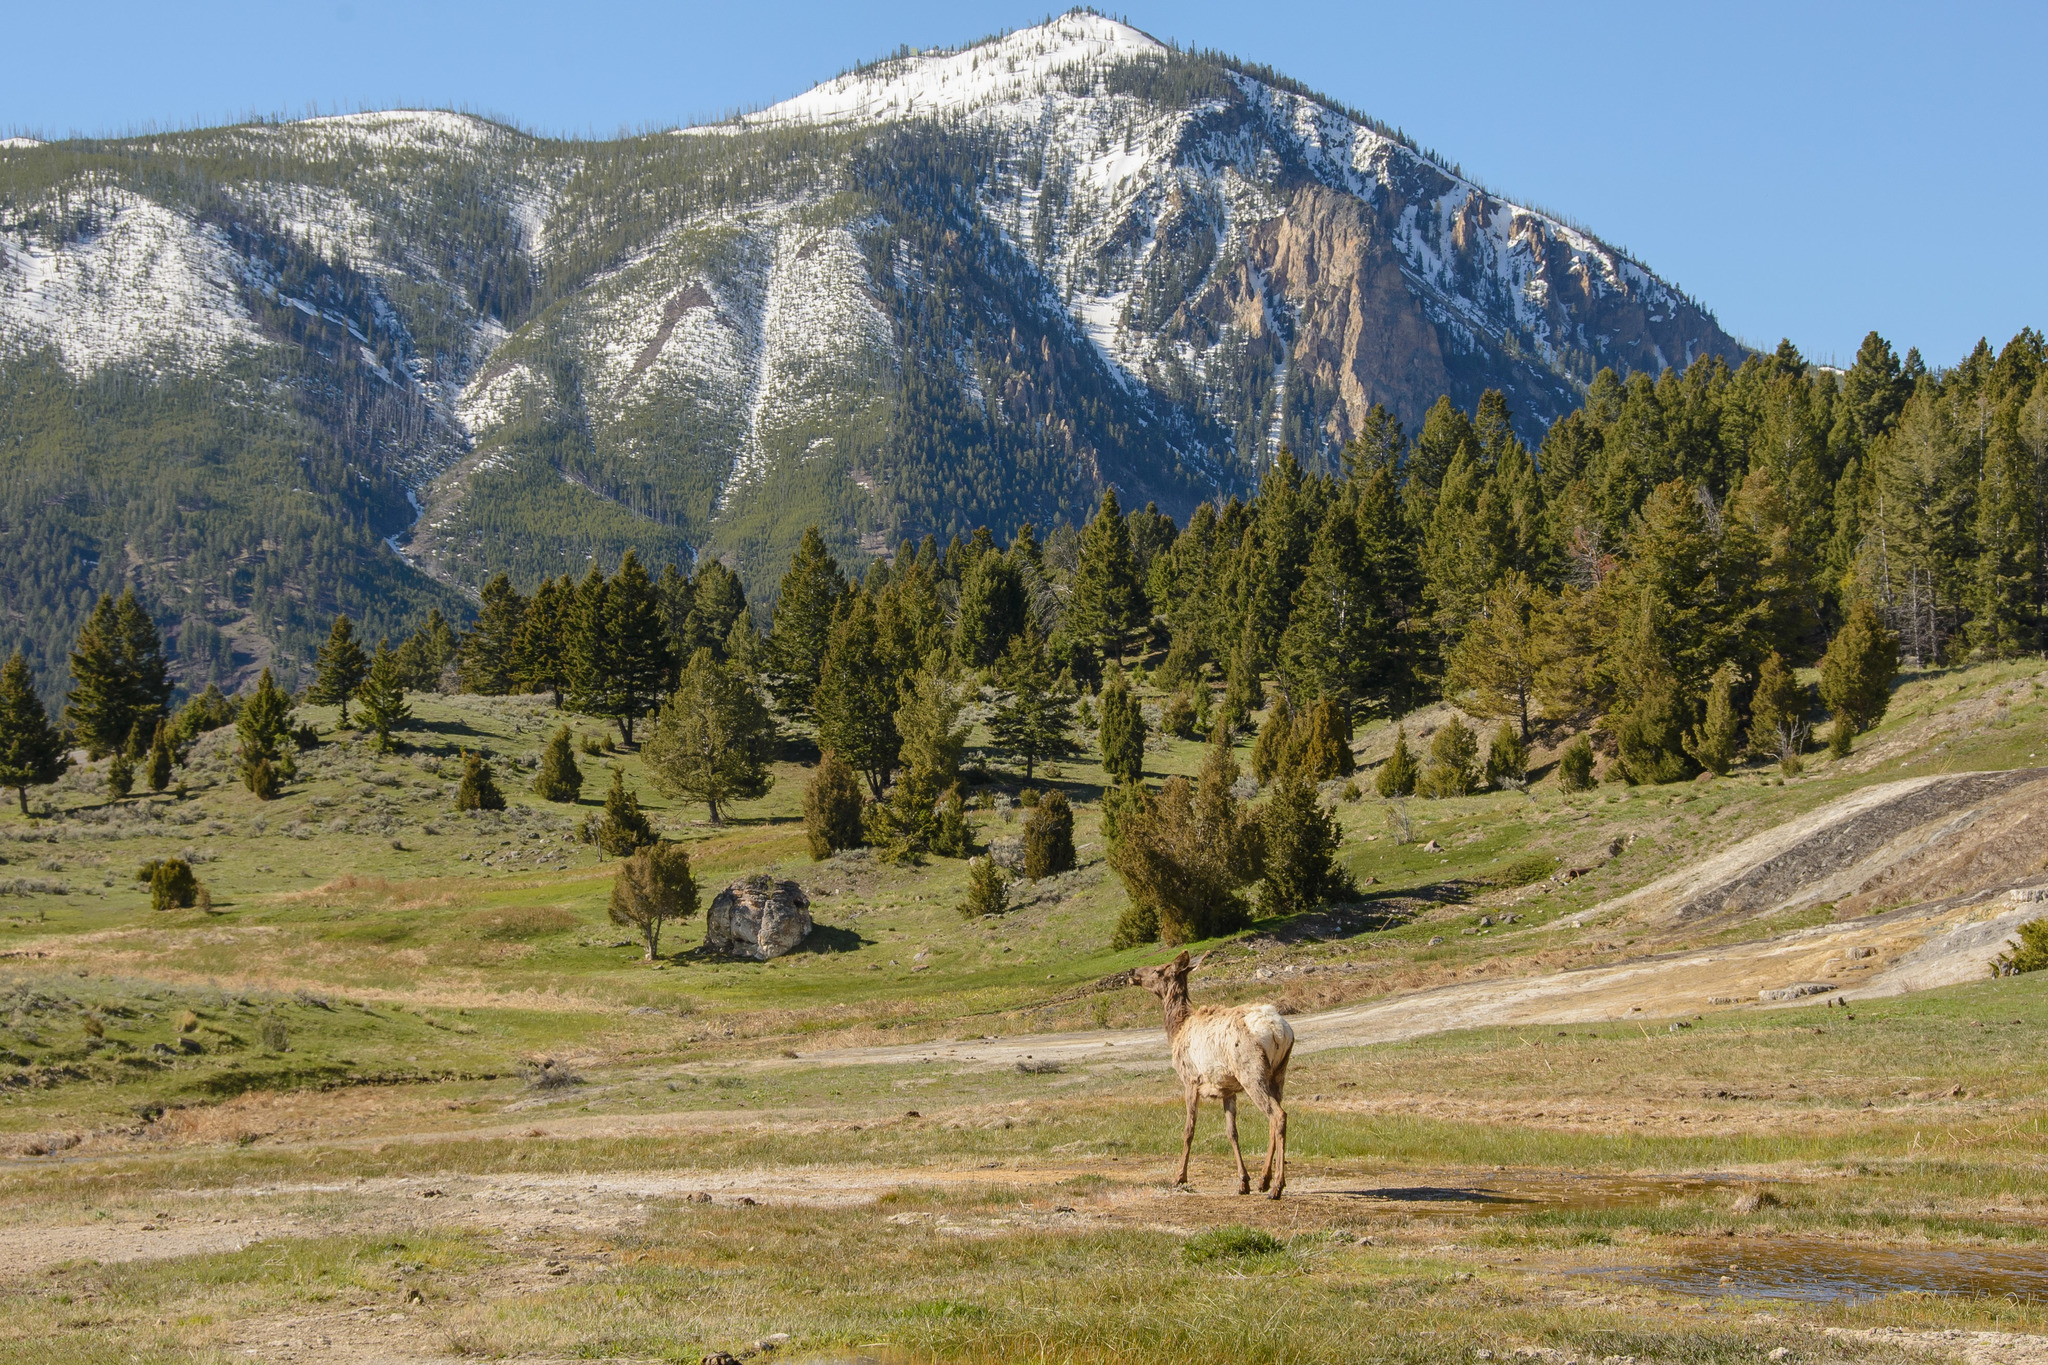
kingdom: Animalia
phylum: Chordata
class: Mammalia
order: Artiodactyla
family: Cervidae
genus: Cervus
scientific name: Cervus elaphus
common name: Red deer
